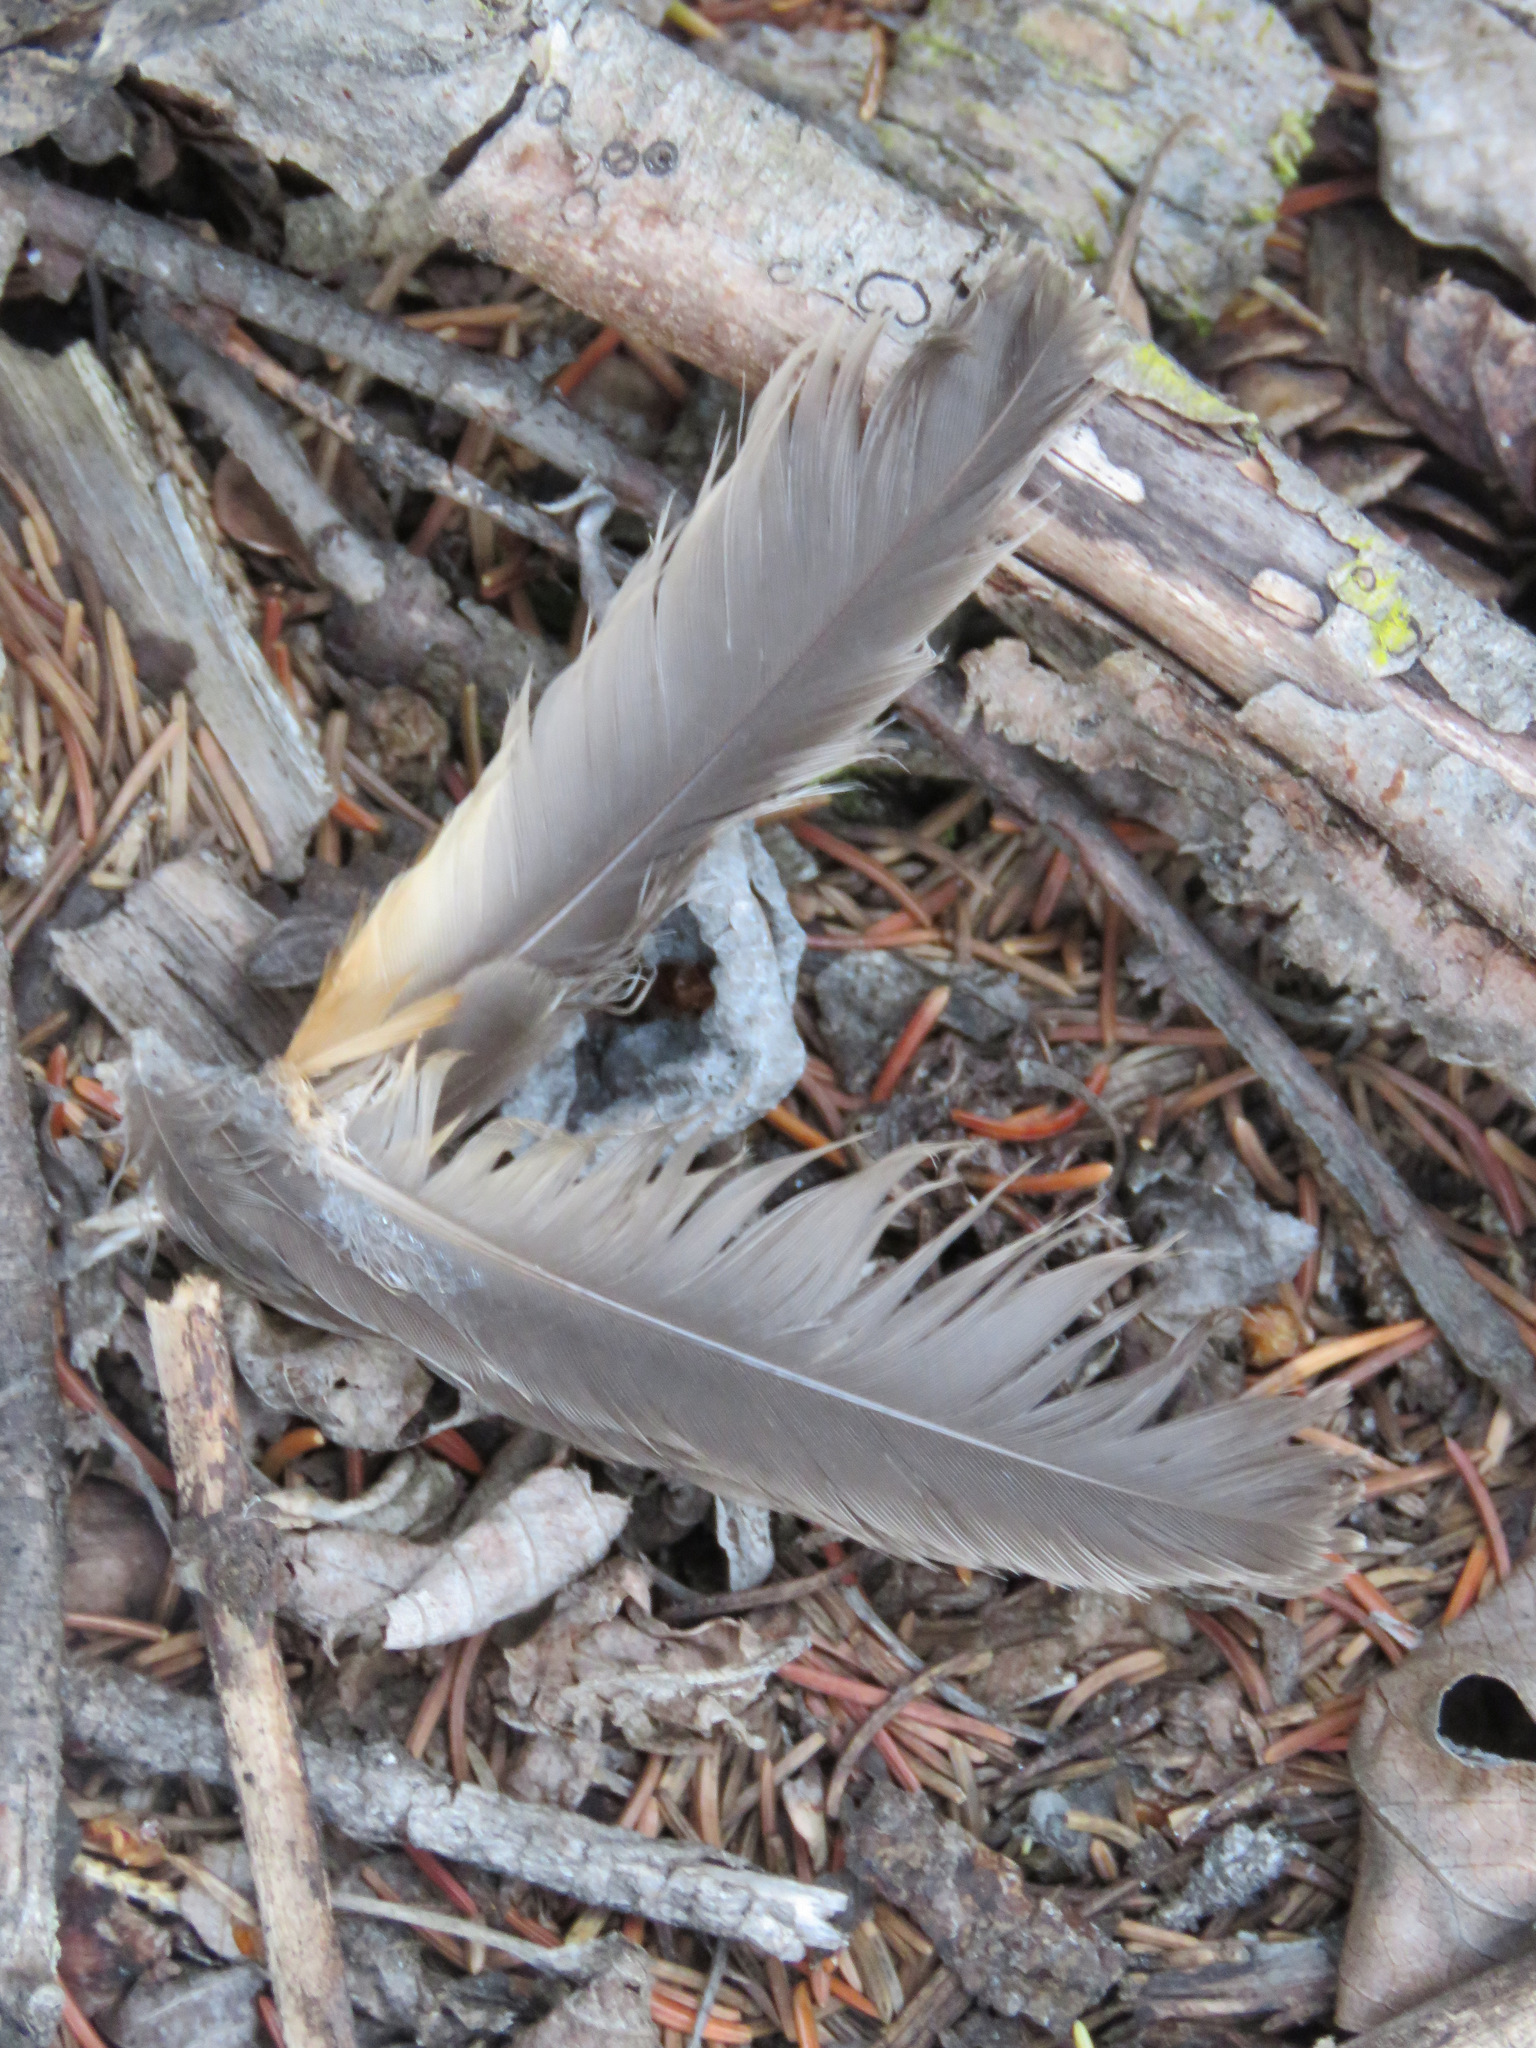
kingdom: Animalia
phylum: Chordata
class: Aves
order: Passeriformes
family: Turdidae
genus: Turdus
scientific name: Turdus migratorius
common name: American robin
